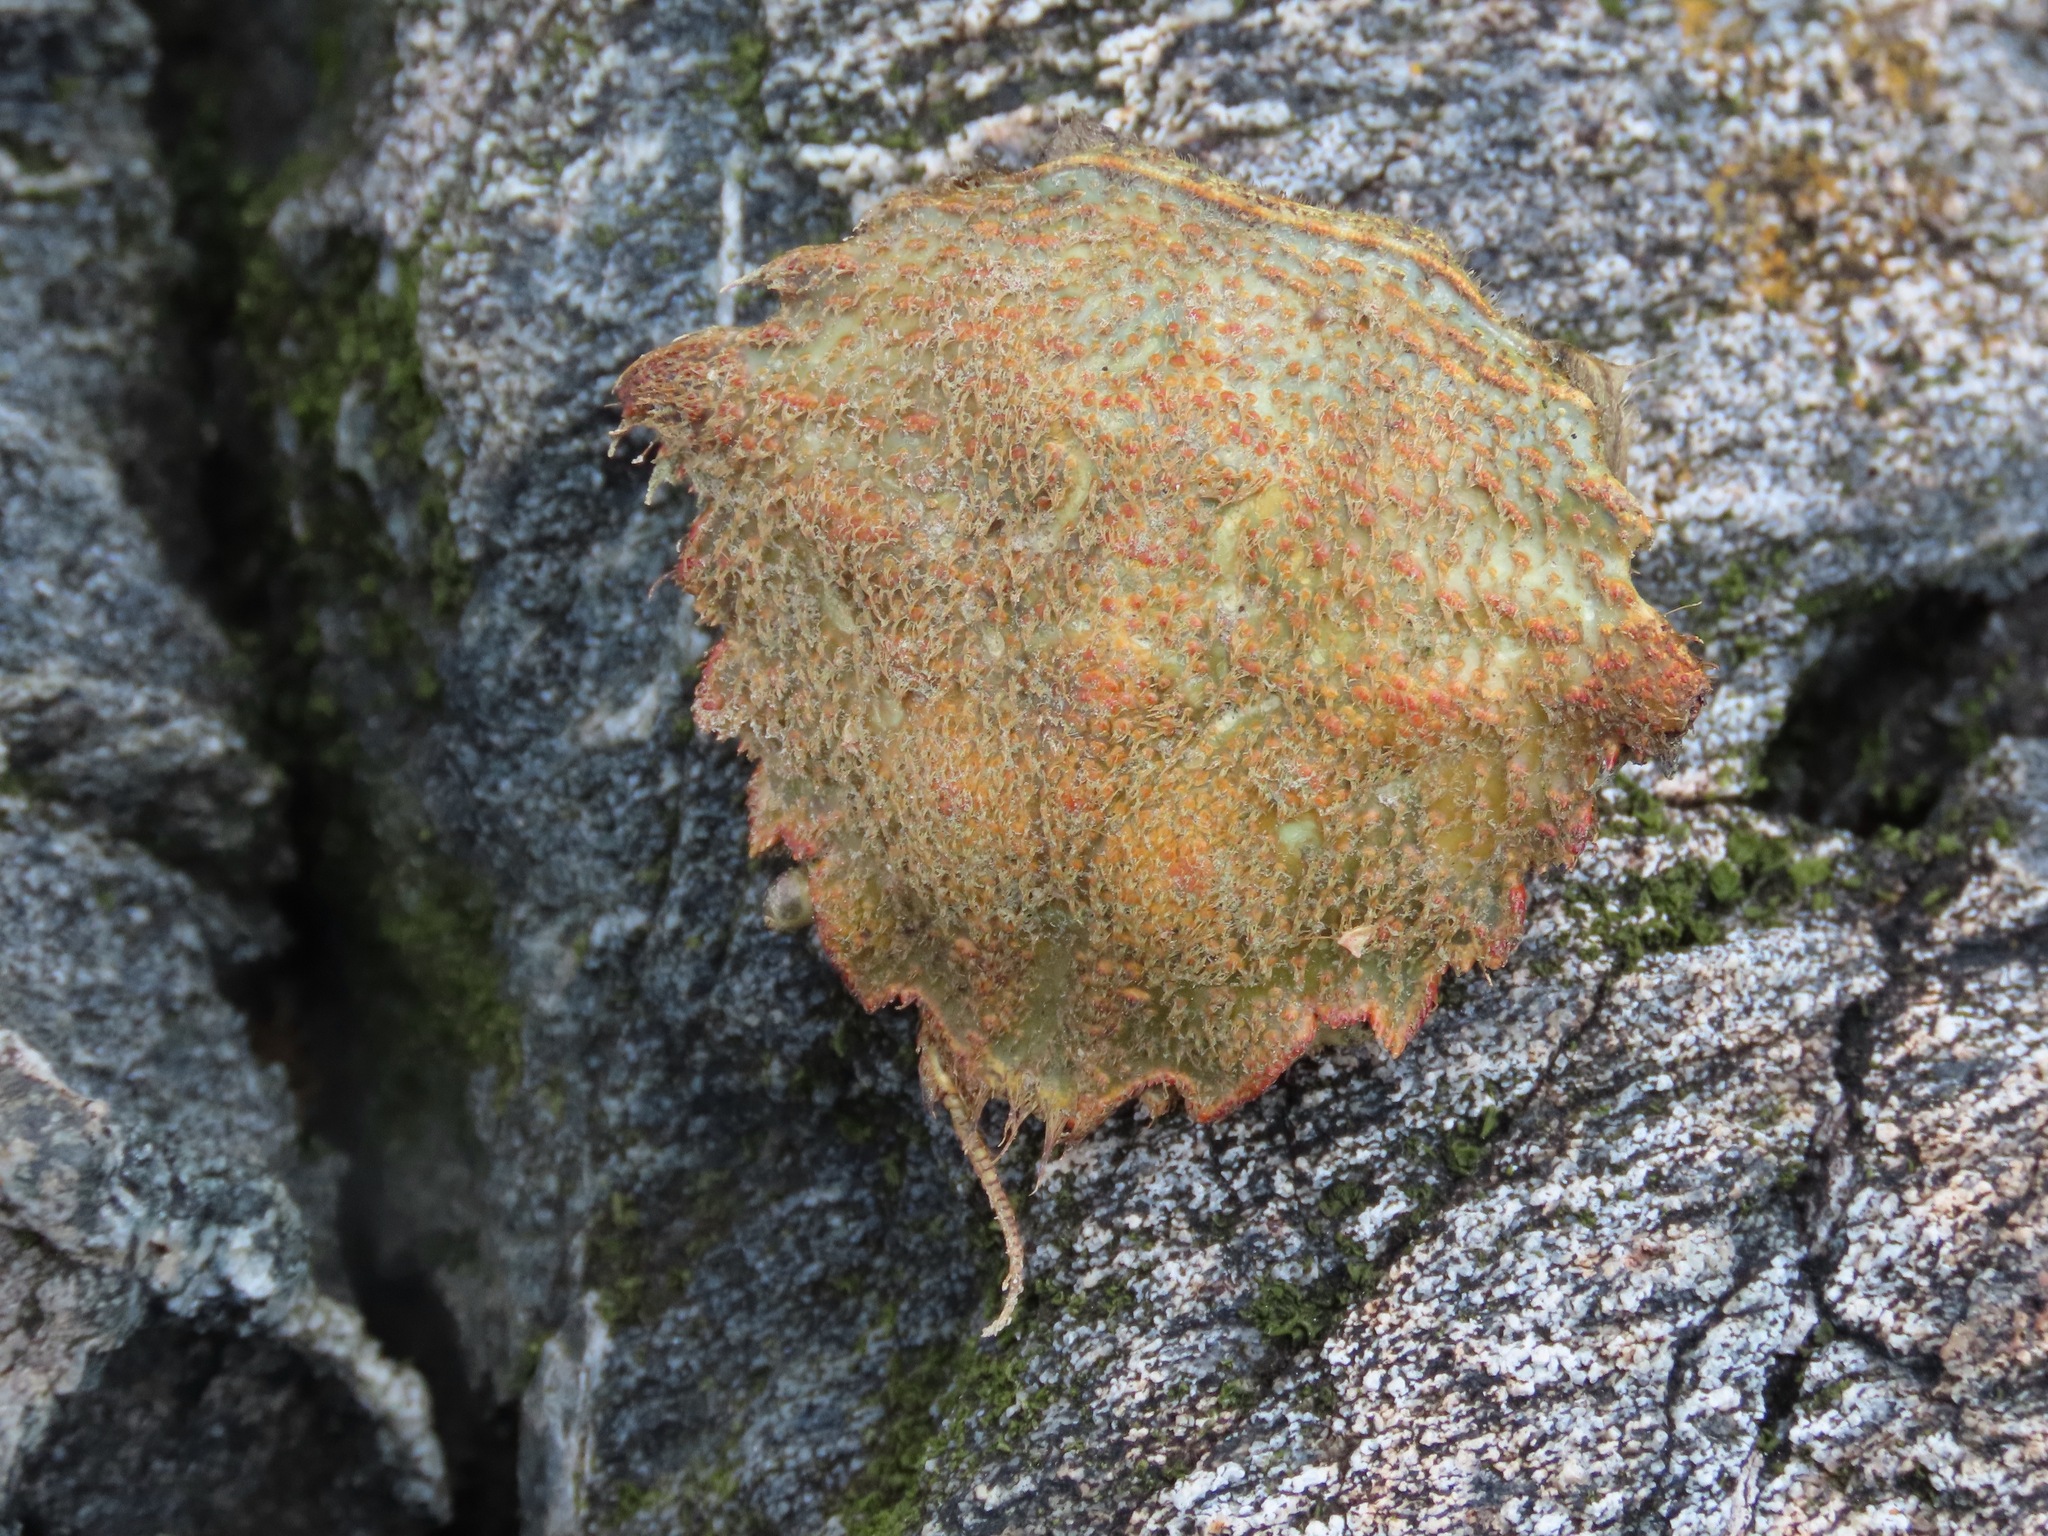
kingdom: Animalia
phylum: Arthropoda
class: Malacostraca
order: Decapoda
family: Cheiragonidae
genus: Telmessus
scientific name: Telmessus cheiragonus
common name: Helmet crab
